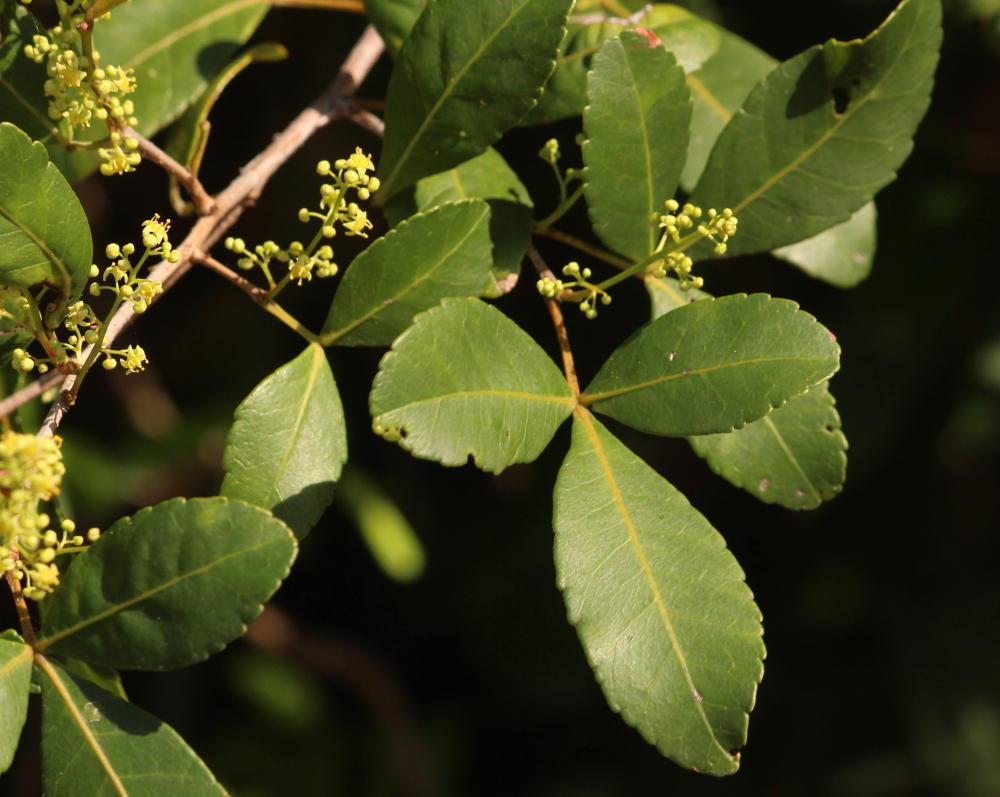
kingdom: Plantae
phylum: Tracheophyta
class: Magnoliopsida
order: Sapindales
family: Anacardiaceae
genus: Searsia
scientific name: Searsia natalensis
